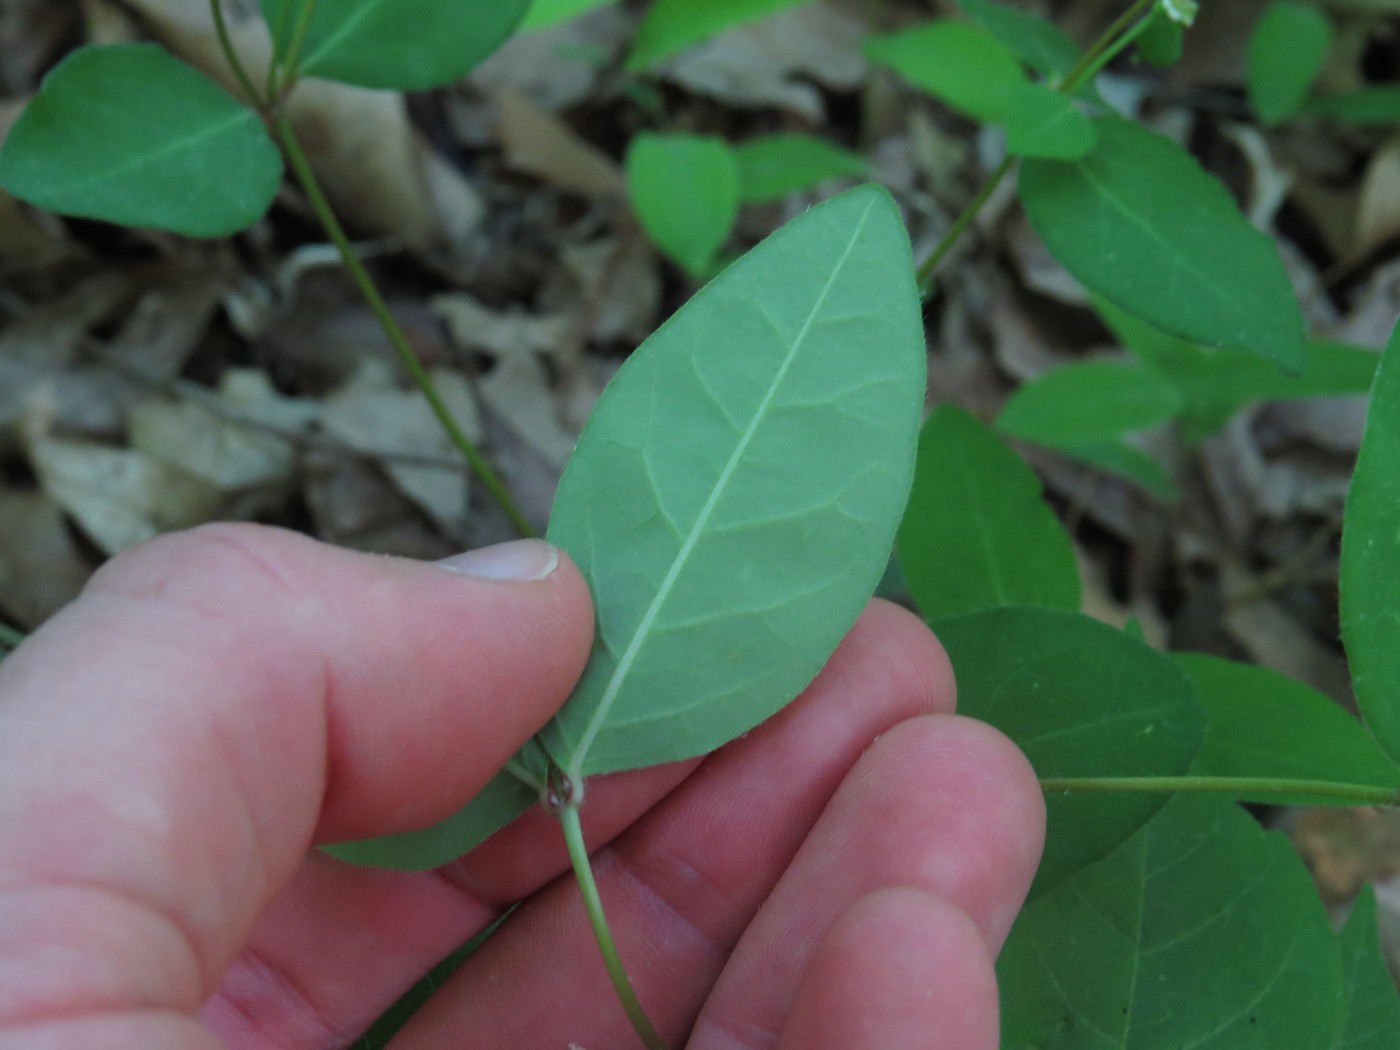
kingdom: Plantae
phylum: Tracheophyta
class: Magnoliopsida
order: Malpighiales
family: Euphorbiaceae
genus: Euphorbia
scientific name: Euphorbia mercurialina
